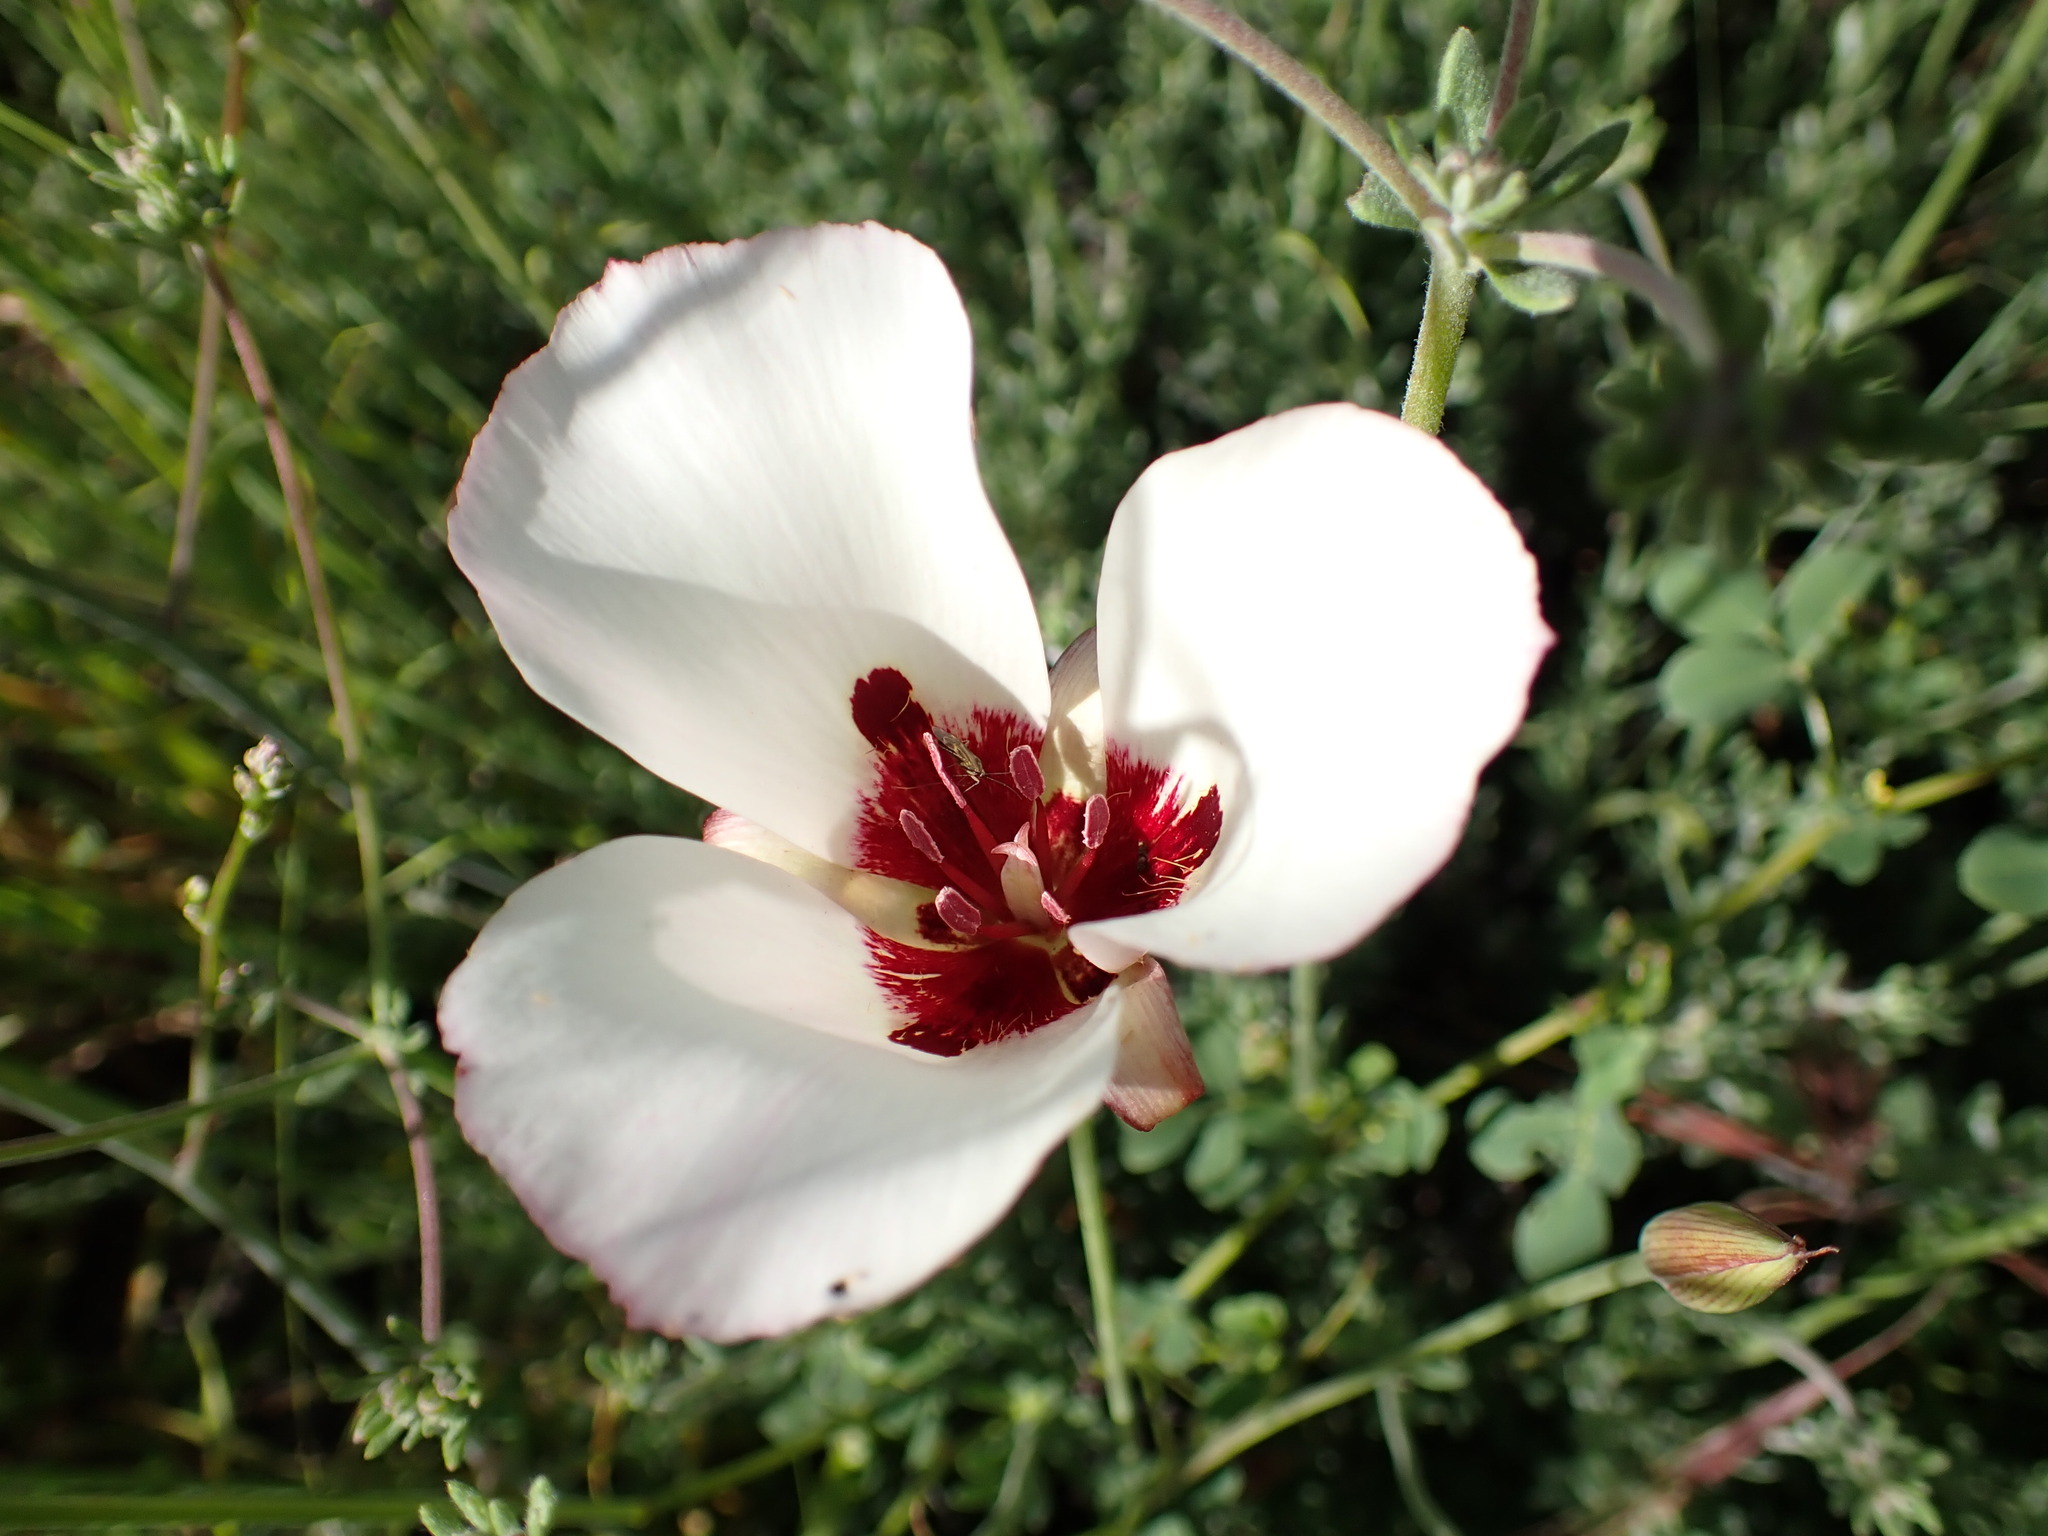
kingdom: Plantae
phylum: Tracheophyta
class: Liliopsida
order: Liliales
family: Liliaceae
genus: Calochortus
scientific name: Calochortus simulans
